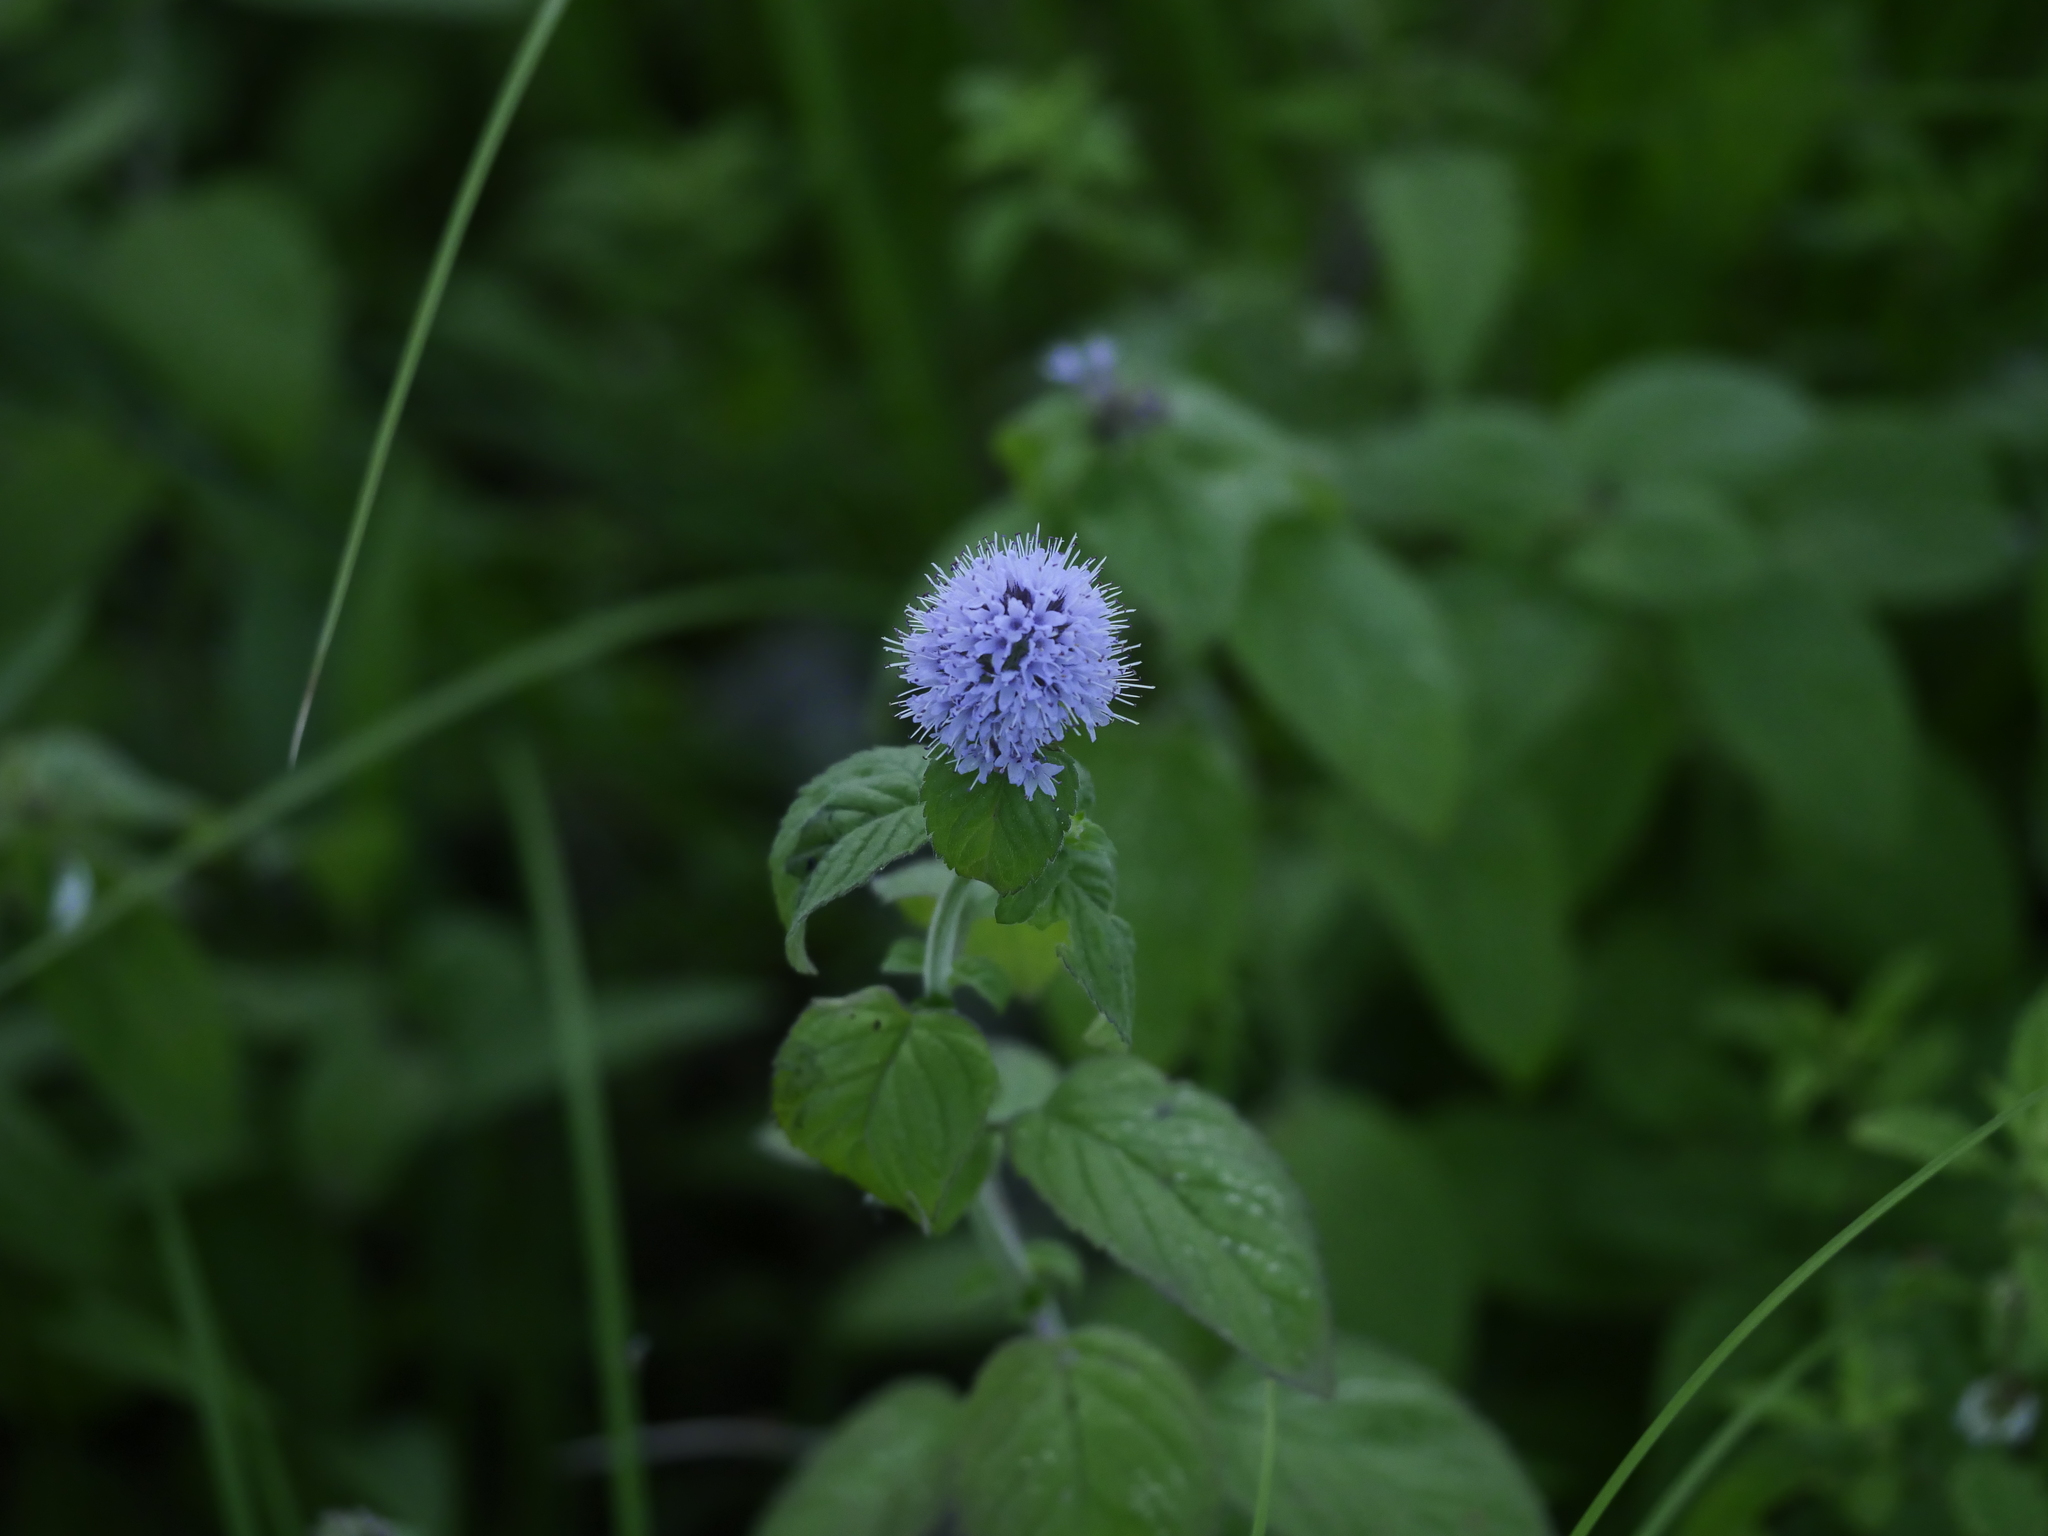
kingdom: Plantae
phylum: Tracheophyta
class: Magnoliopsida
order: Lamiales
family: Lamiaceae
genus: Mentha
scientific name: Mentha aquatica
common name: Water mint
